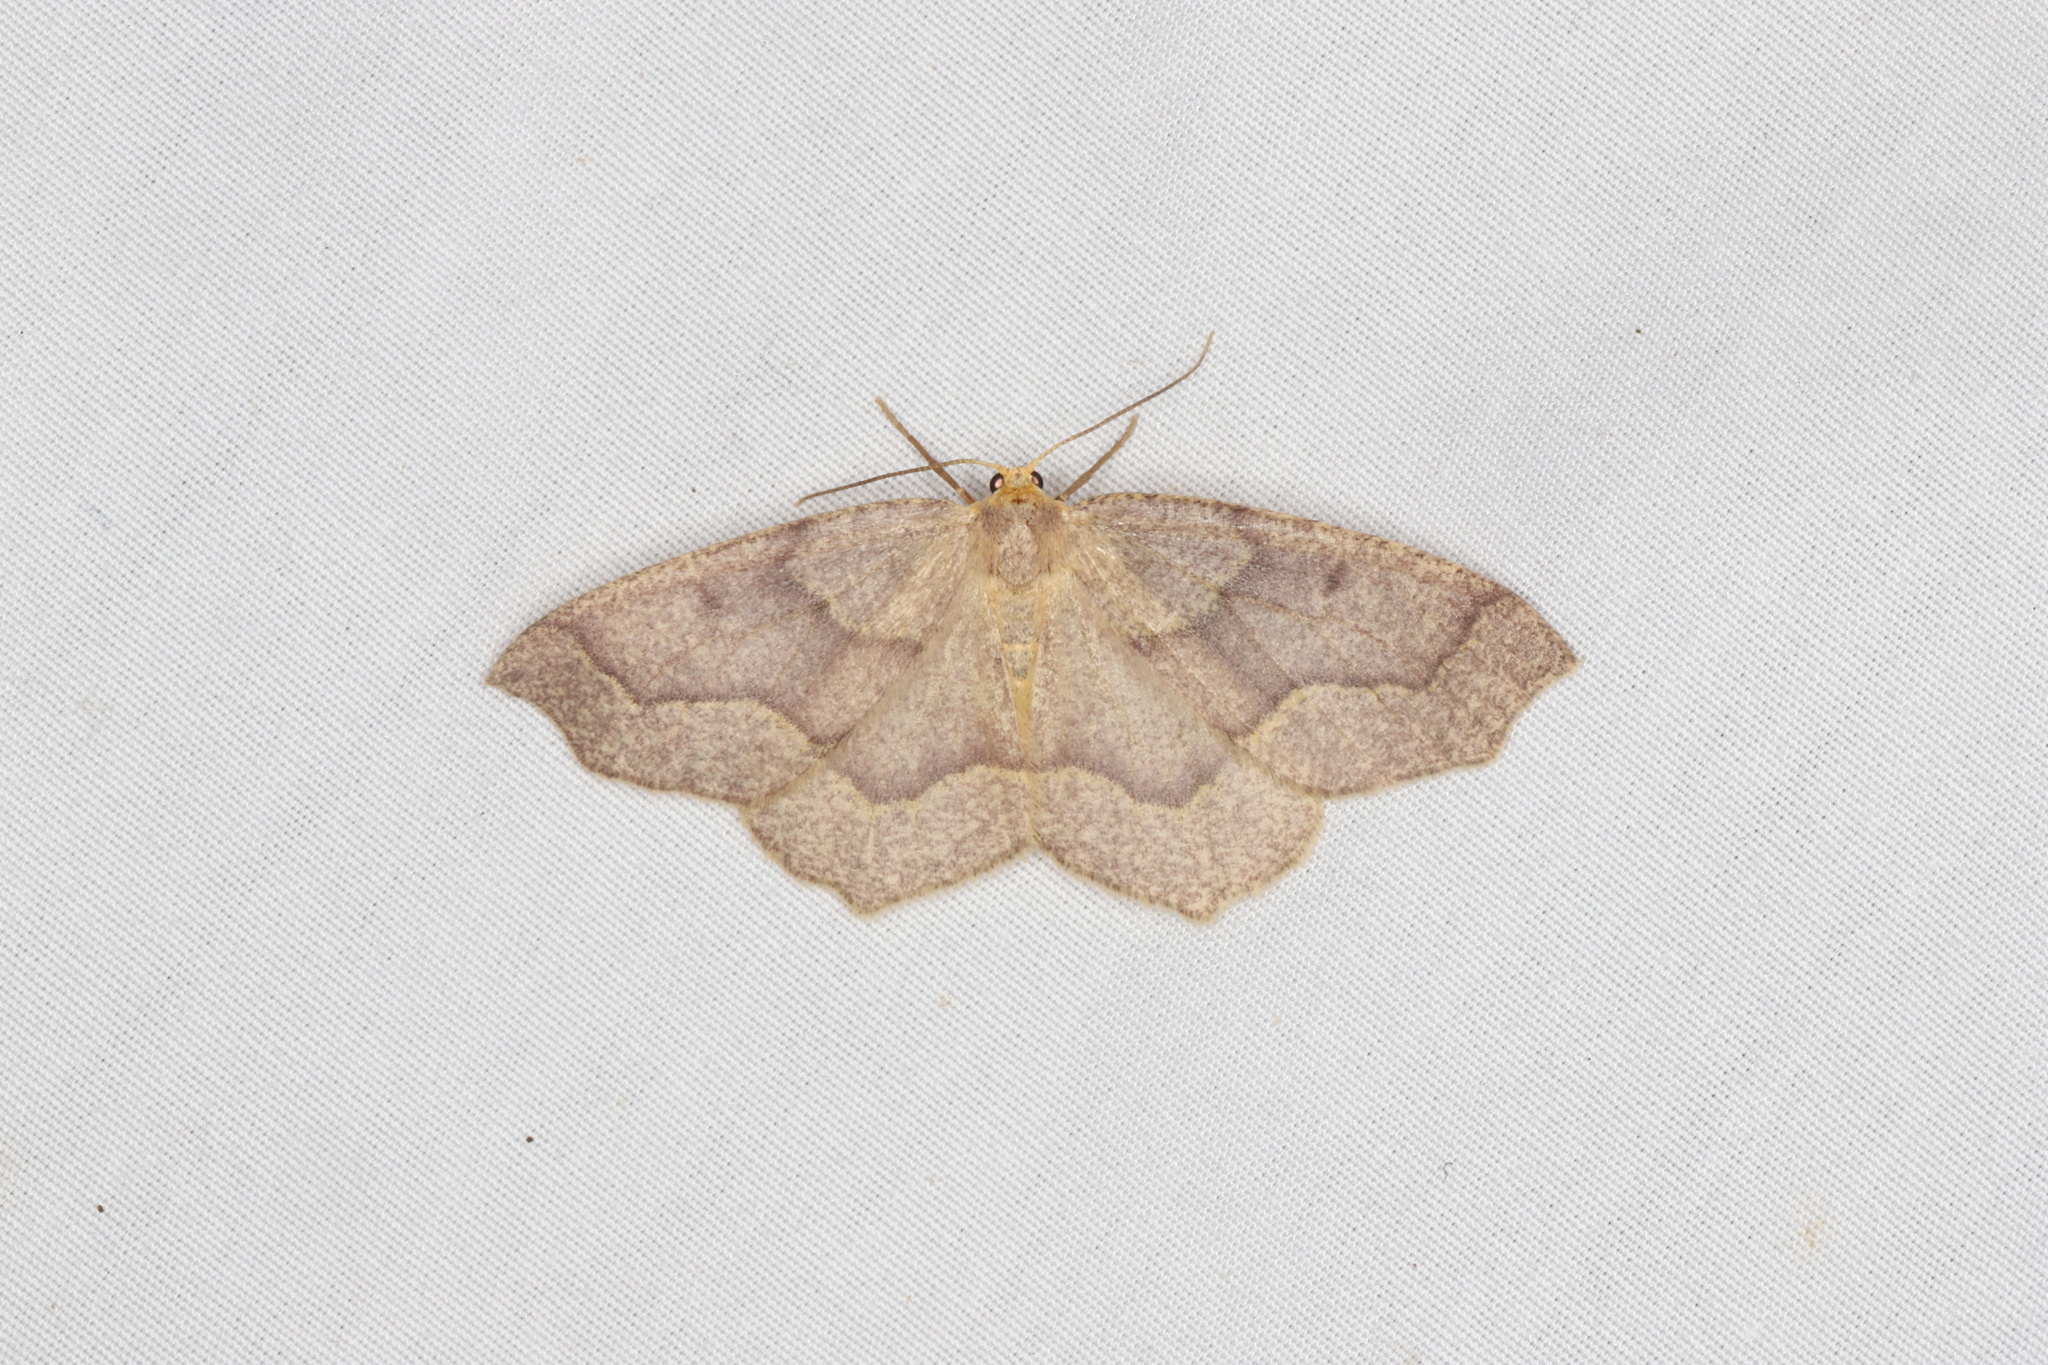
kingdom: Animalia
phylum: Arthropoda
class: Insecta
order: Lepidoptera
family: Geometridae
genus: Lambdina
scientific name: Lambdina fiscellaria
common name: Hemlock looper
